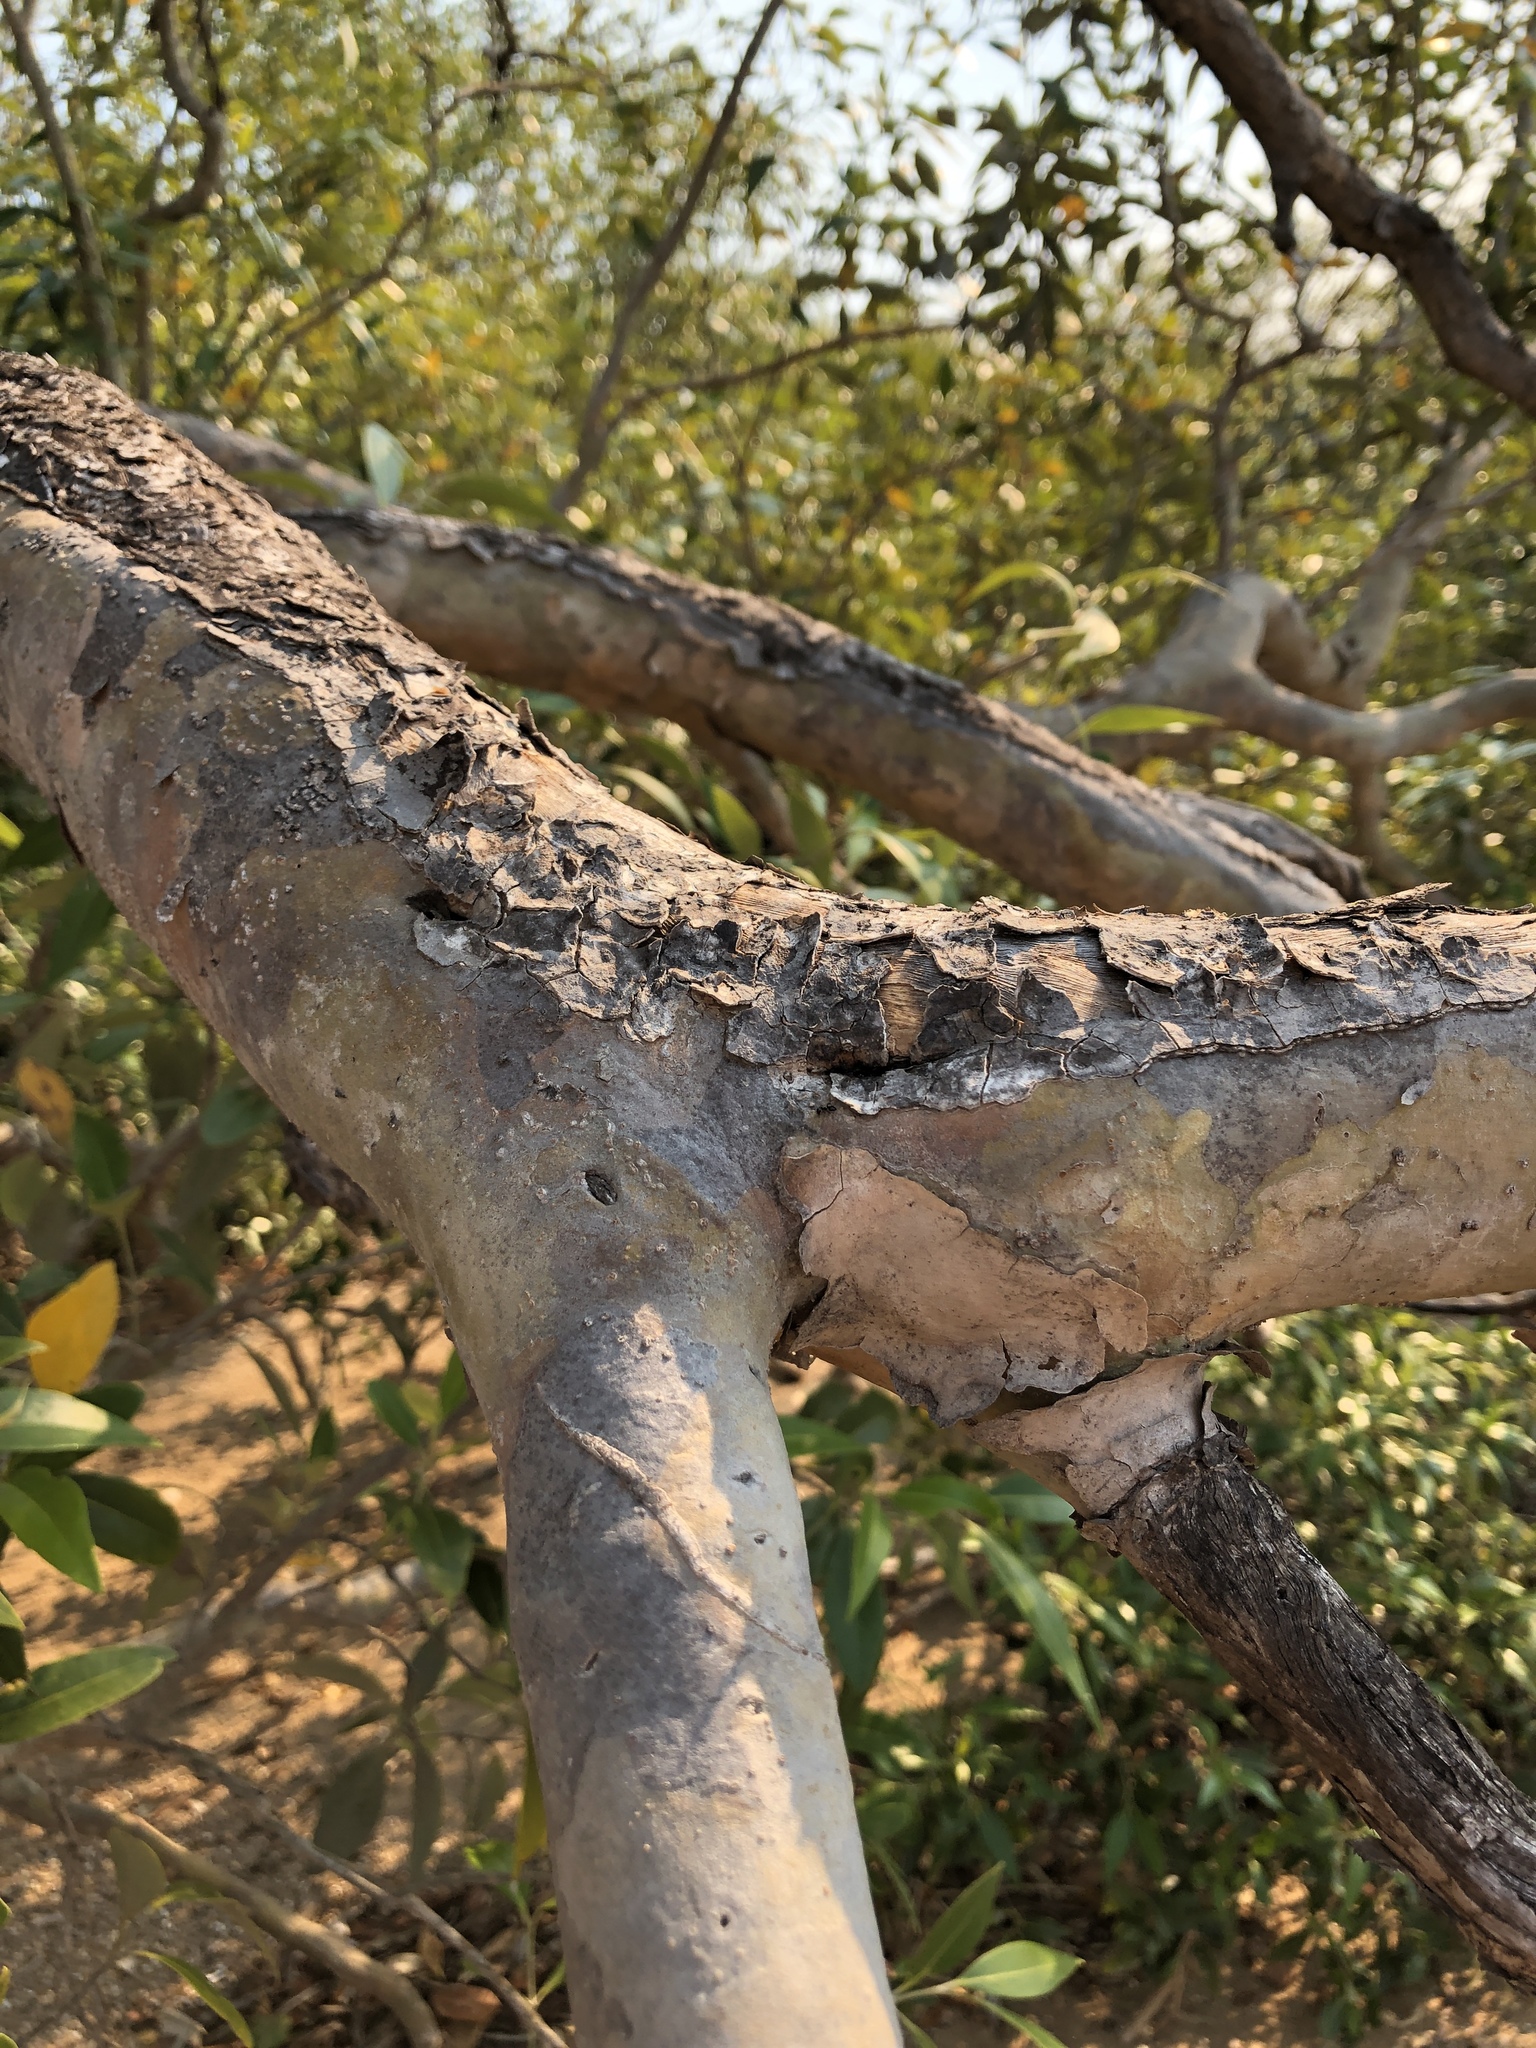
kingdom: Plantae
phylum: Tracheophyta
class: Magnoliopsida
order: Lamiales
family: Acanthaceae
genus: Avicennia
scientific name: Avicennia marina
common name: Gray mangrove
